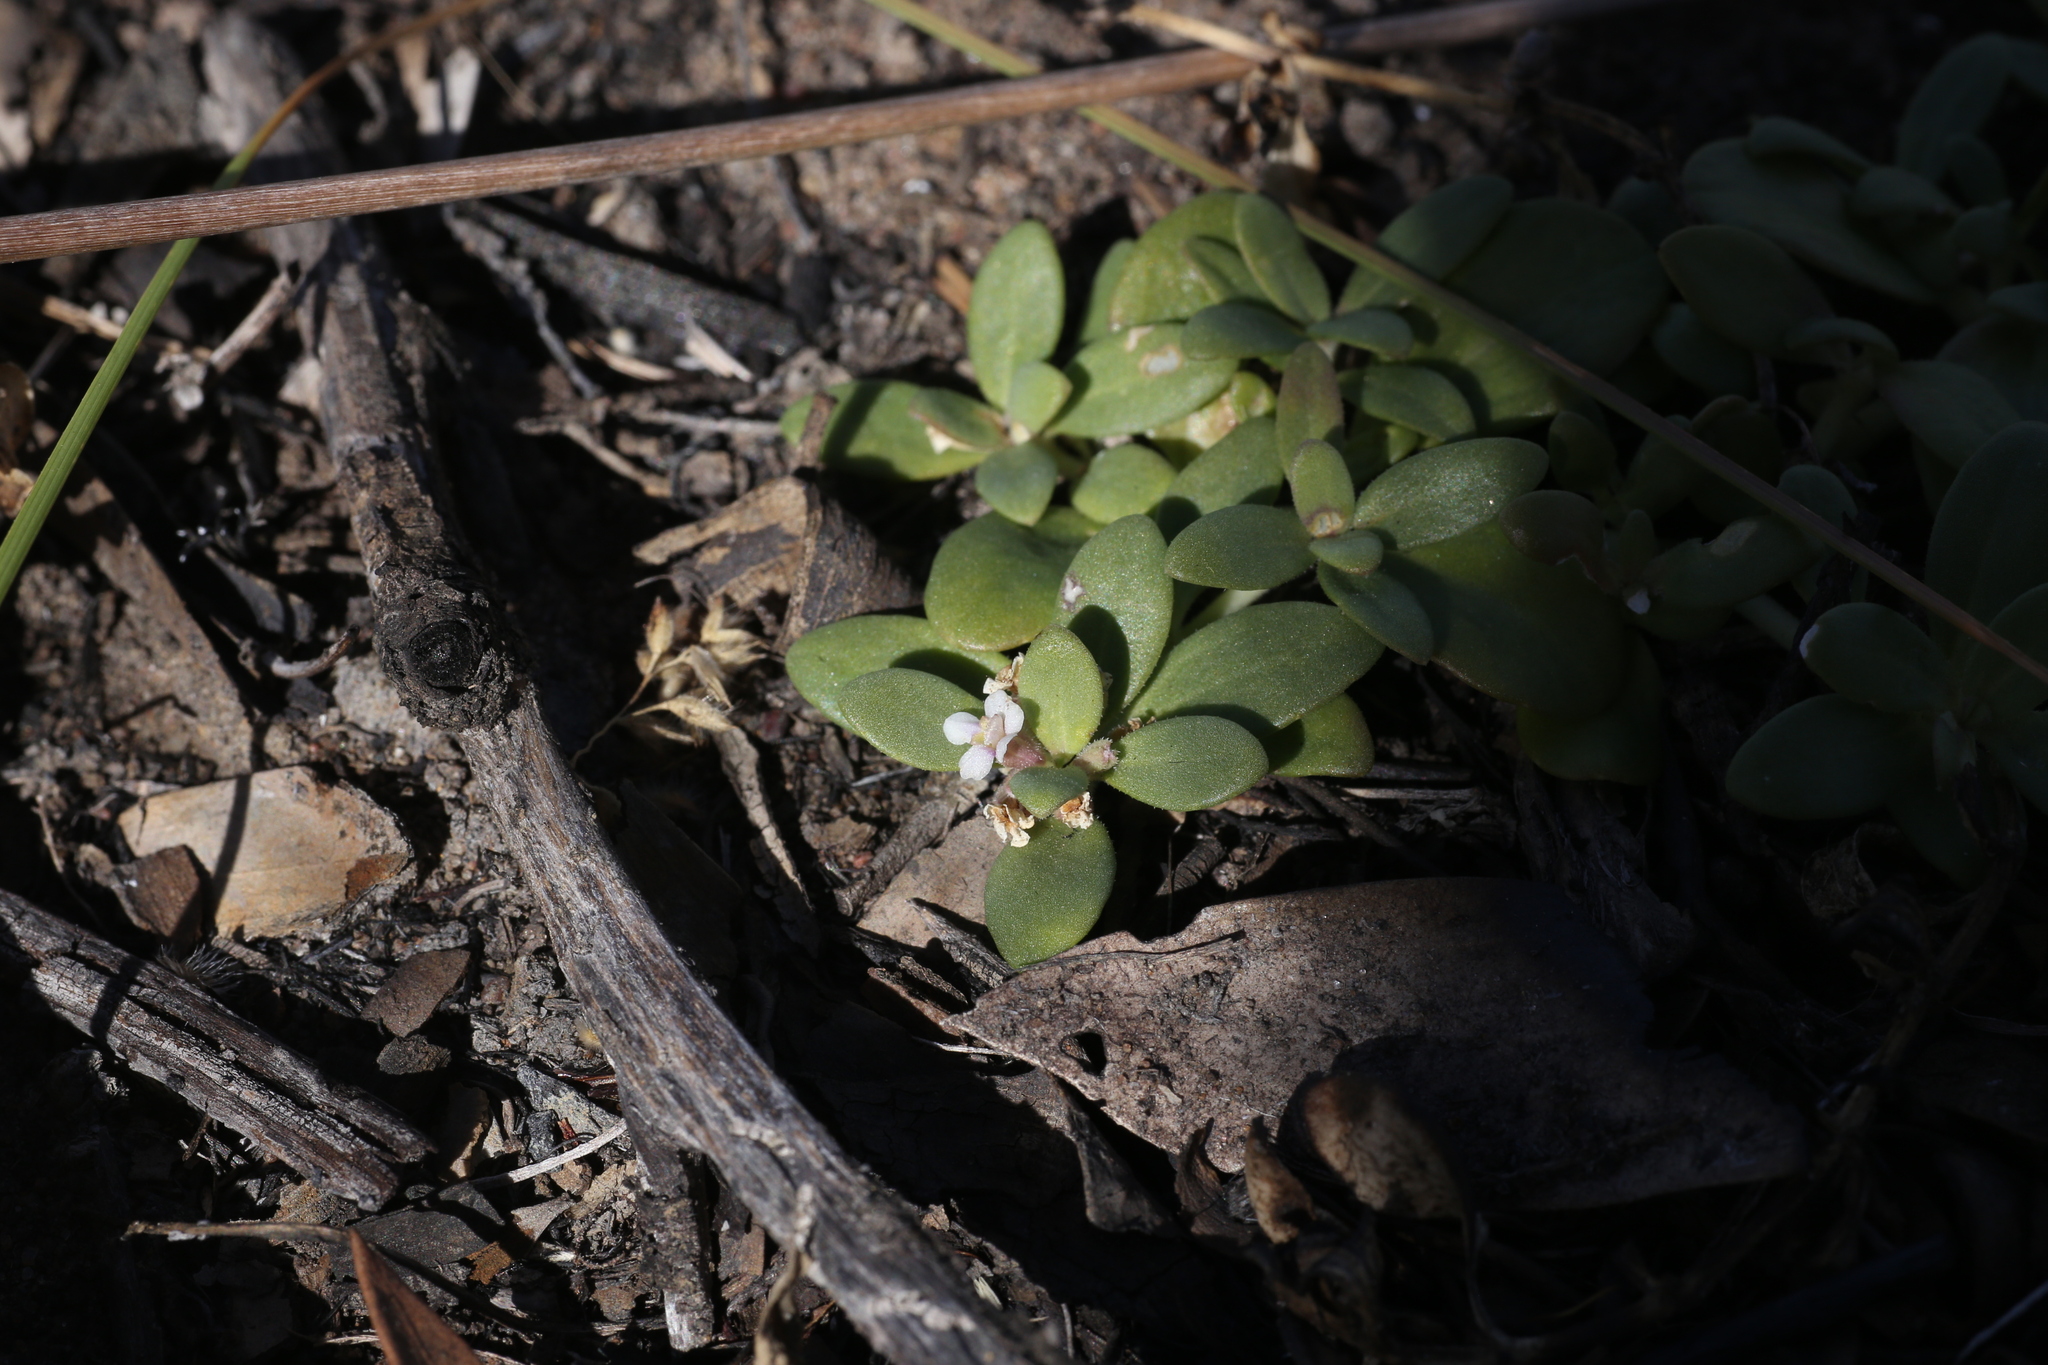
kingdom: Plantae
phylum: Tracheophyta
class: Magnoliopsida
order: Lamiales
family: Phrymaceae
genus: Peplidium
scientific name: Peplidium maritimum
